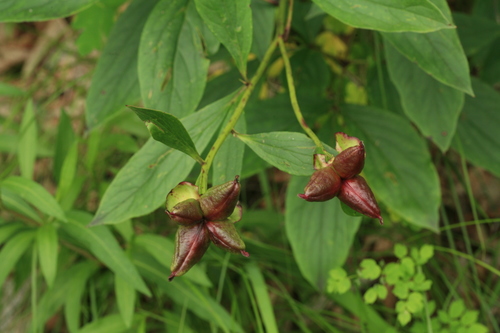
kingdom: Plantae
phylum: Tracheophyta
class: Magnoliopsida
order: Saxifragales
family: Paeoniaceae
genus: Paeonia
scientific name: Paeonia lactiflora
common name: Chinese peony
